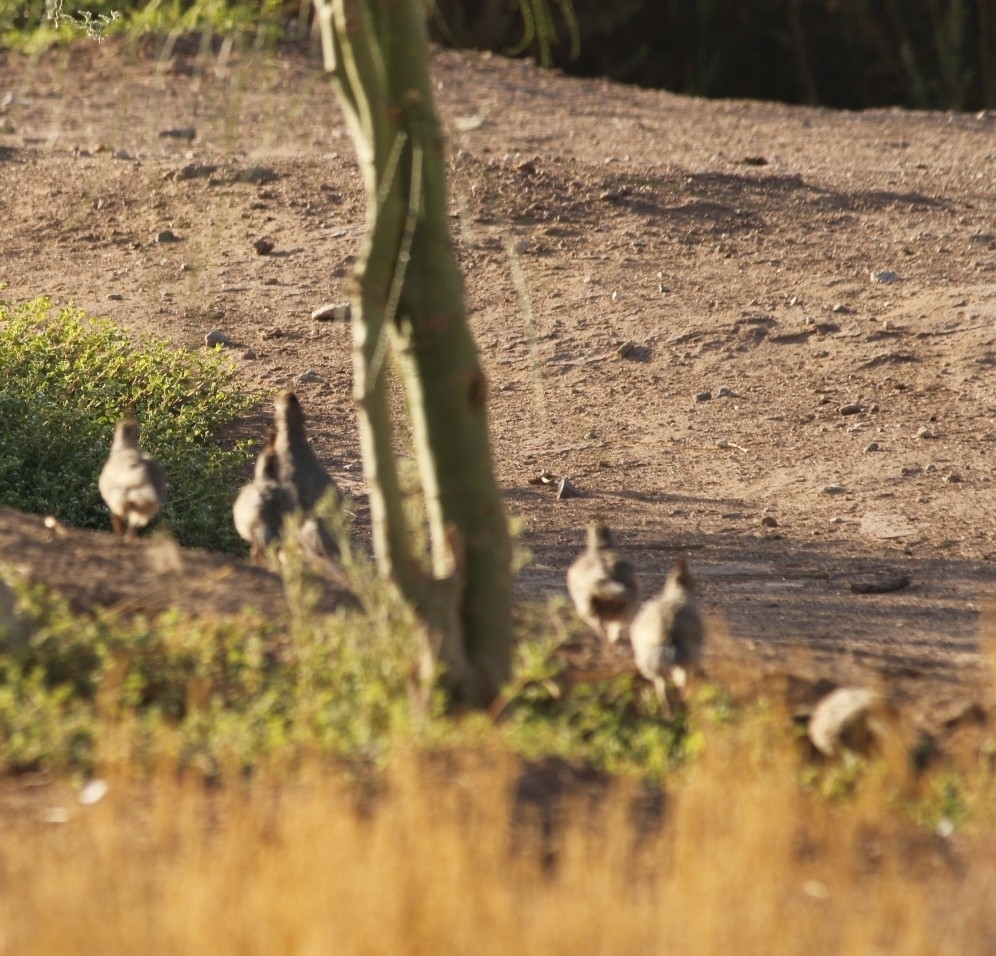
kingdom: Animalia
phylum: Chordata
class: Aves
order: Galliformes
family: Odontophoridae
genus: Callipepla
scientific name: Callipepla gambelii
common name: Gambel's quail
